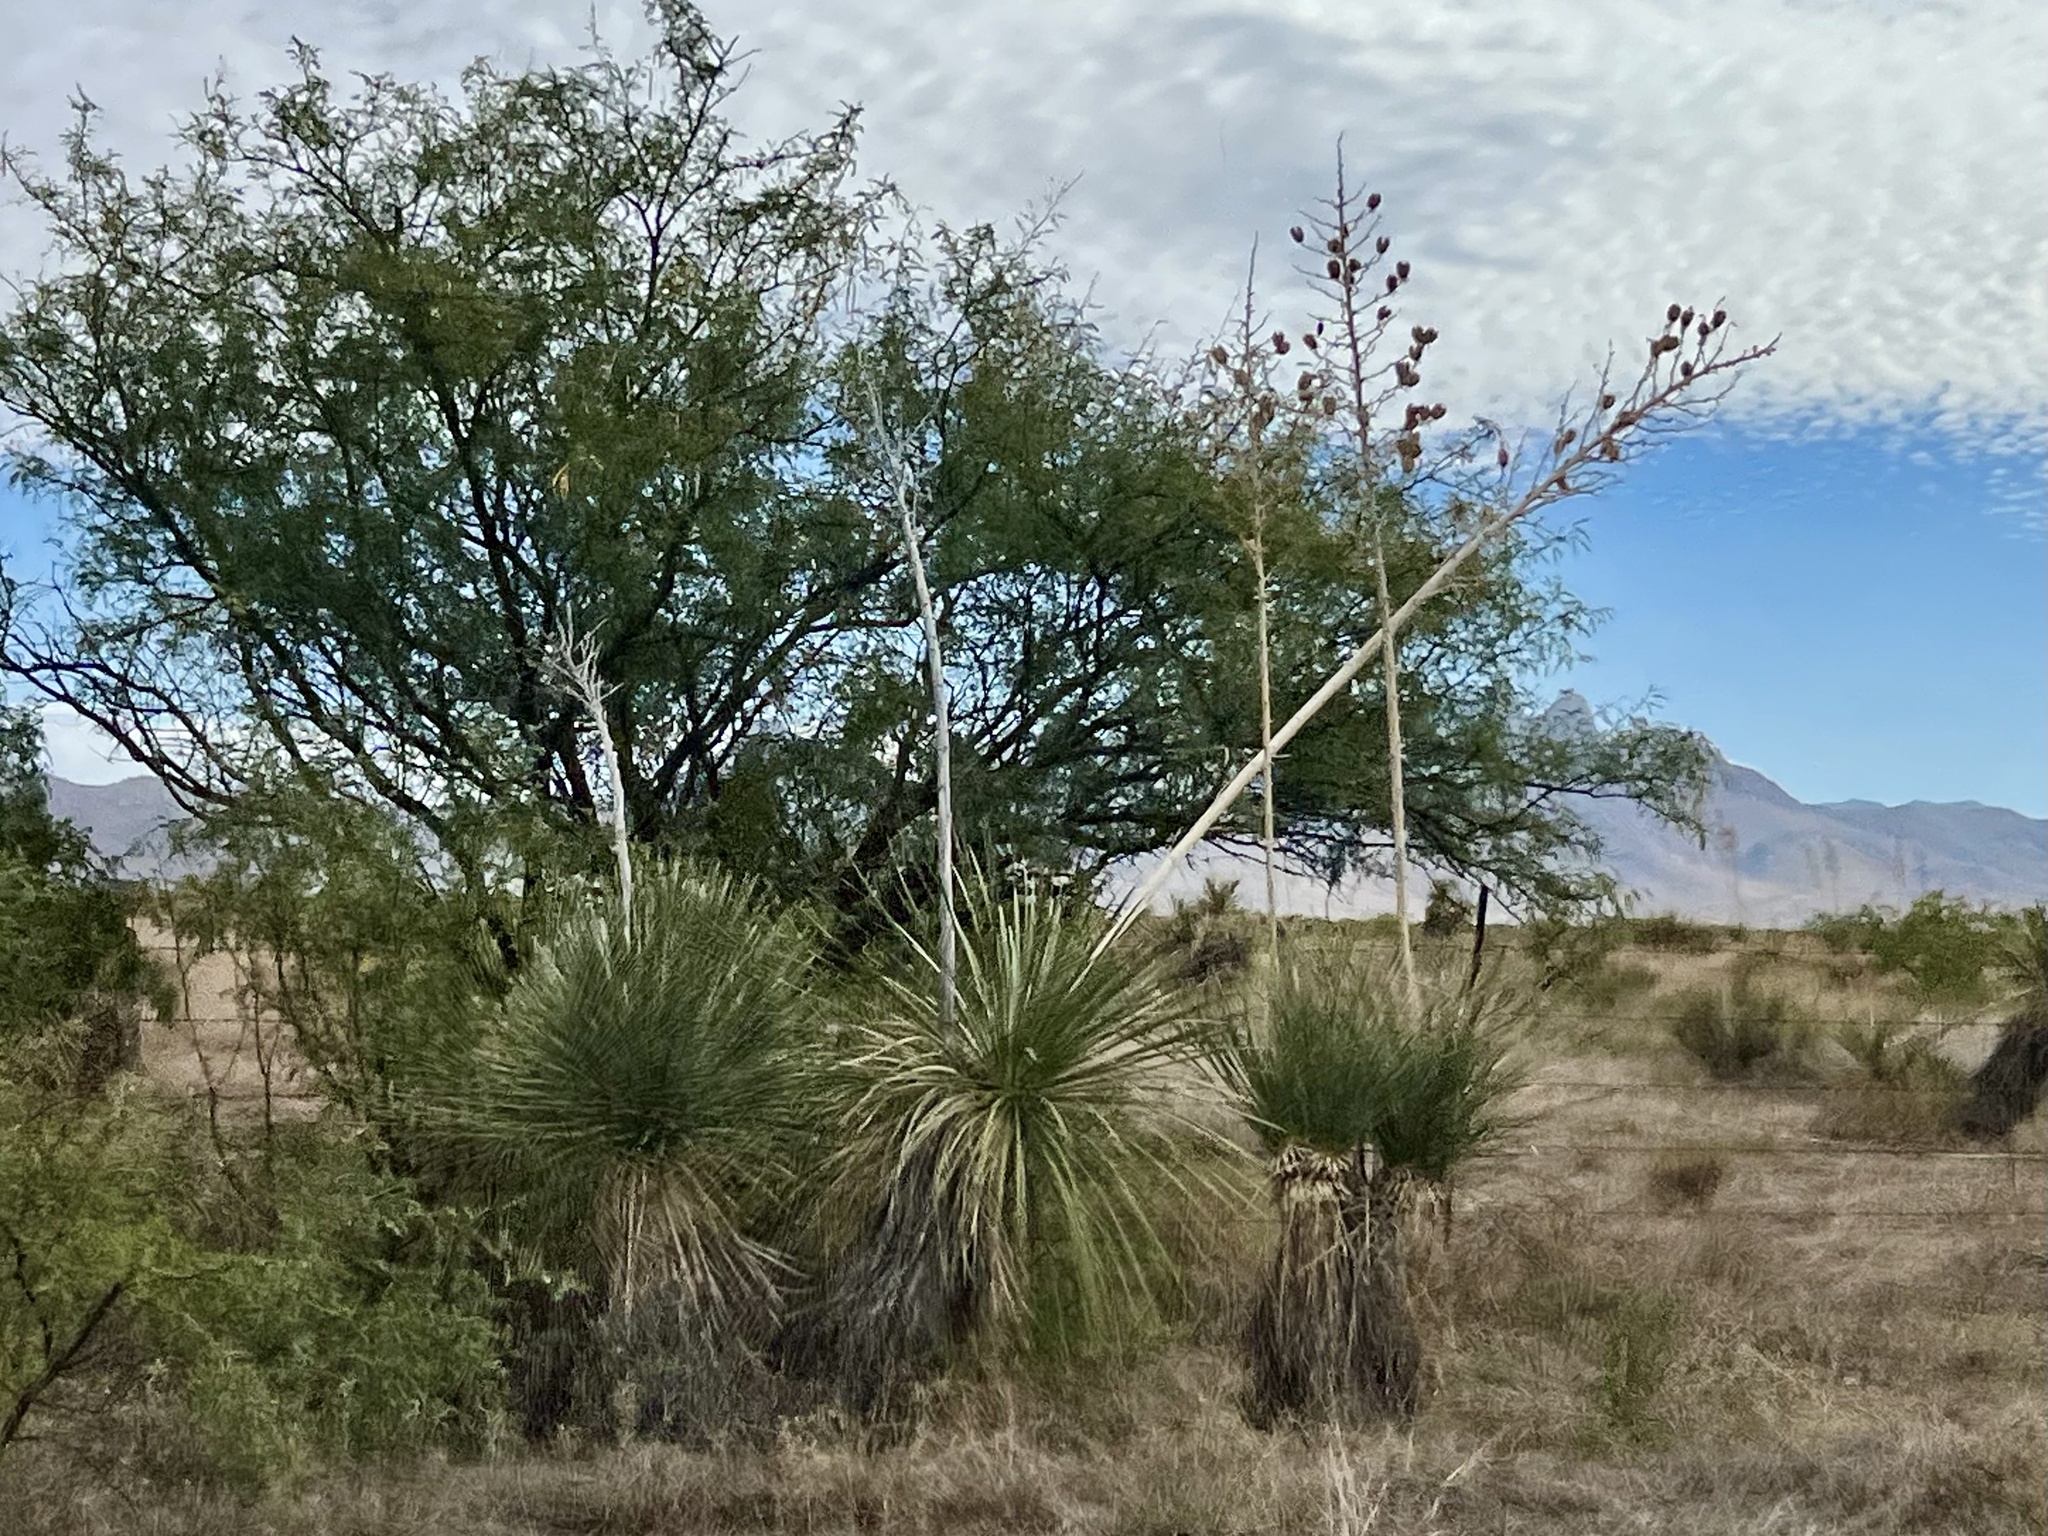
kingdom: Plantae
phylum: Tracheophyta
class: Liliopsida
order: Asparagales
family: Asparagaceae
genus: Yucca
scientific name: Yucca elata
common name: Palmella
